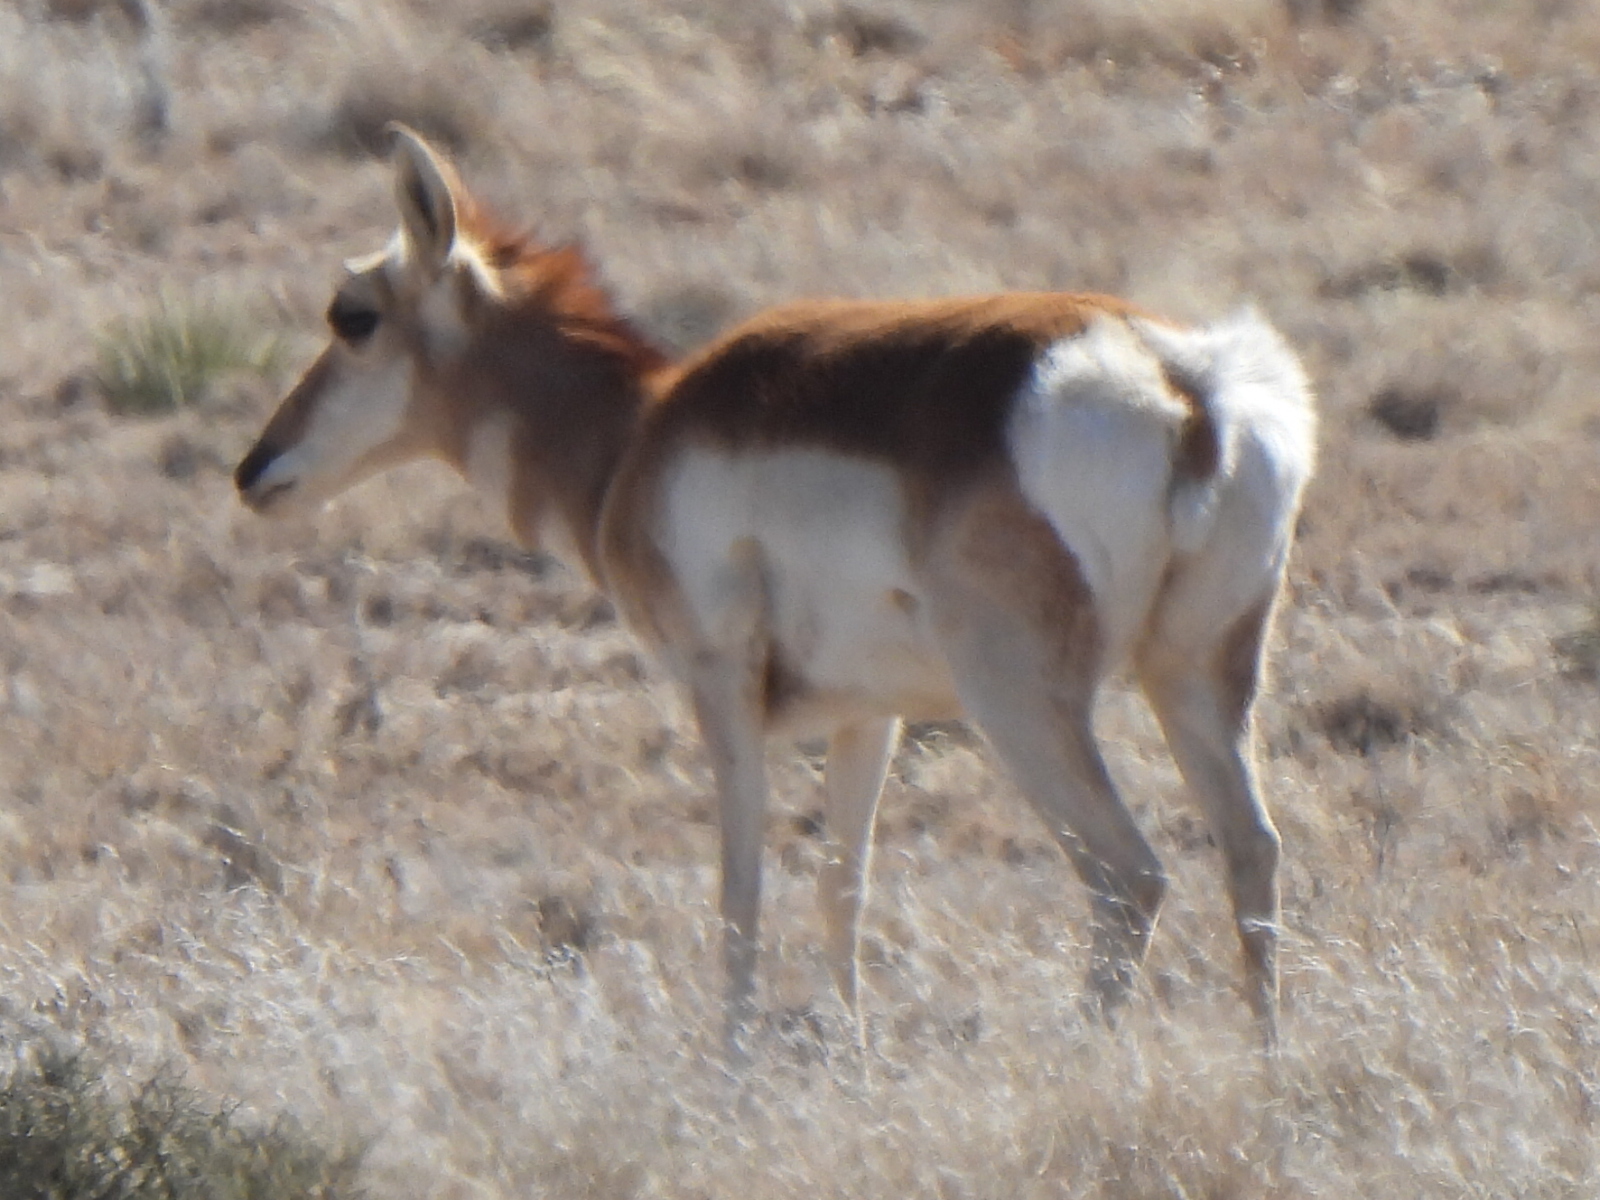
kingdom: Animalia
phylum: Chordata
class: Mammalia
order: Artiodactyla
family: Antilocapridae
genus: Antilocapra
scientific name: Antilocapra americana
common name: Pronghorn
